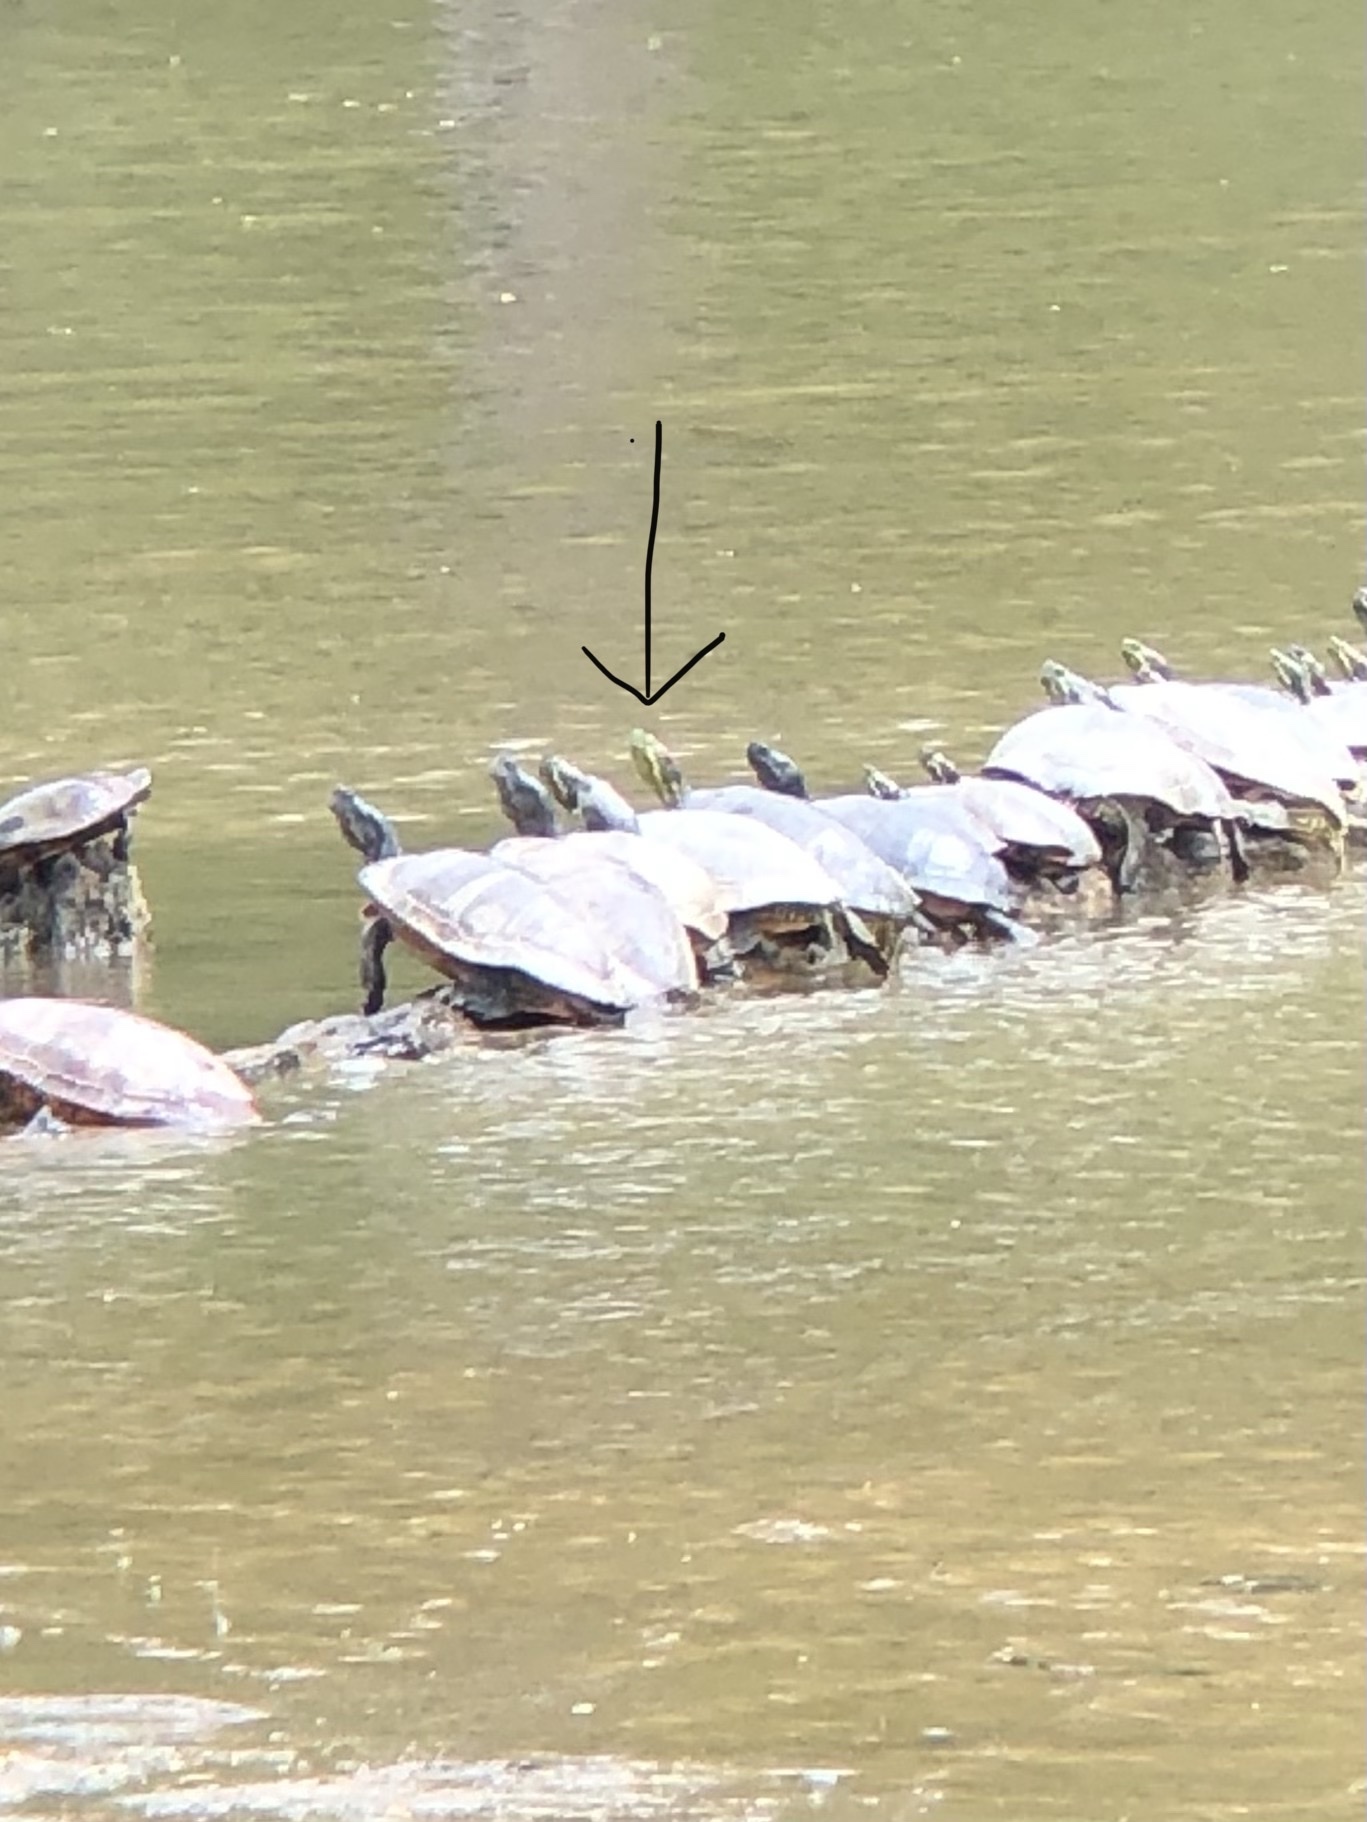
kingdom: Animalia
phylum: Chordata
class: Testudines
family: Emydidae
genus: Trachemys
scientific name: Trachemys scripta
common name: Slider
